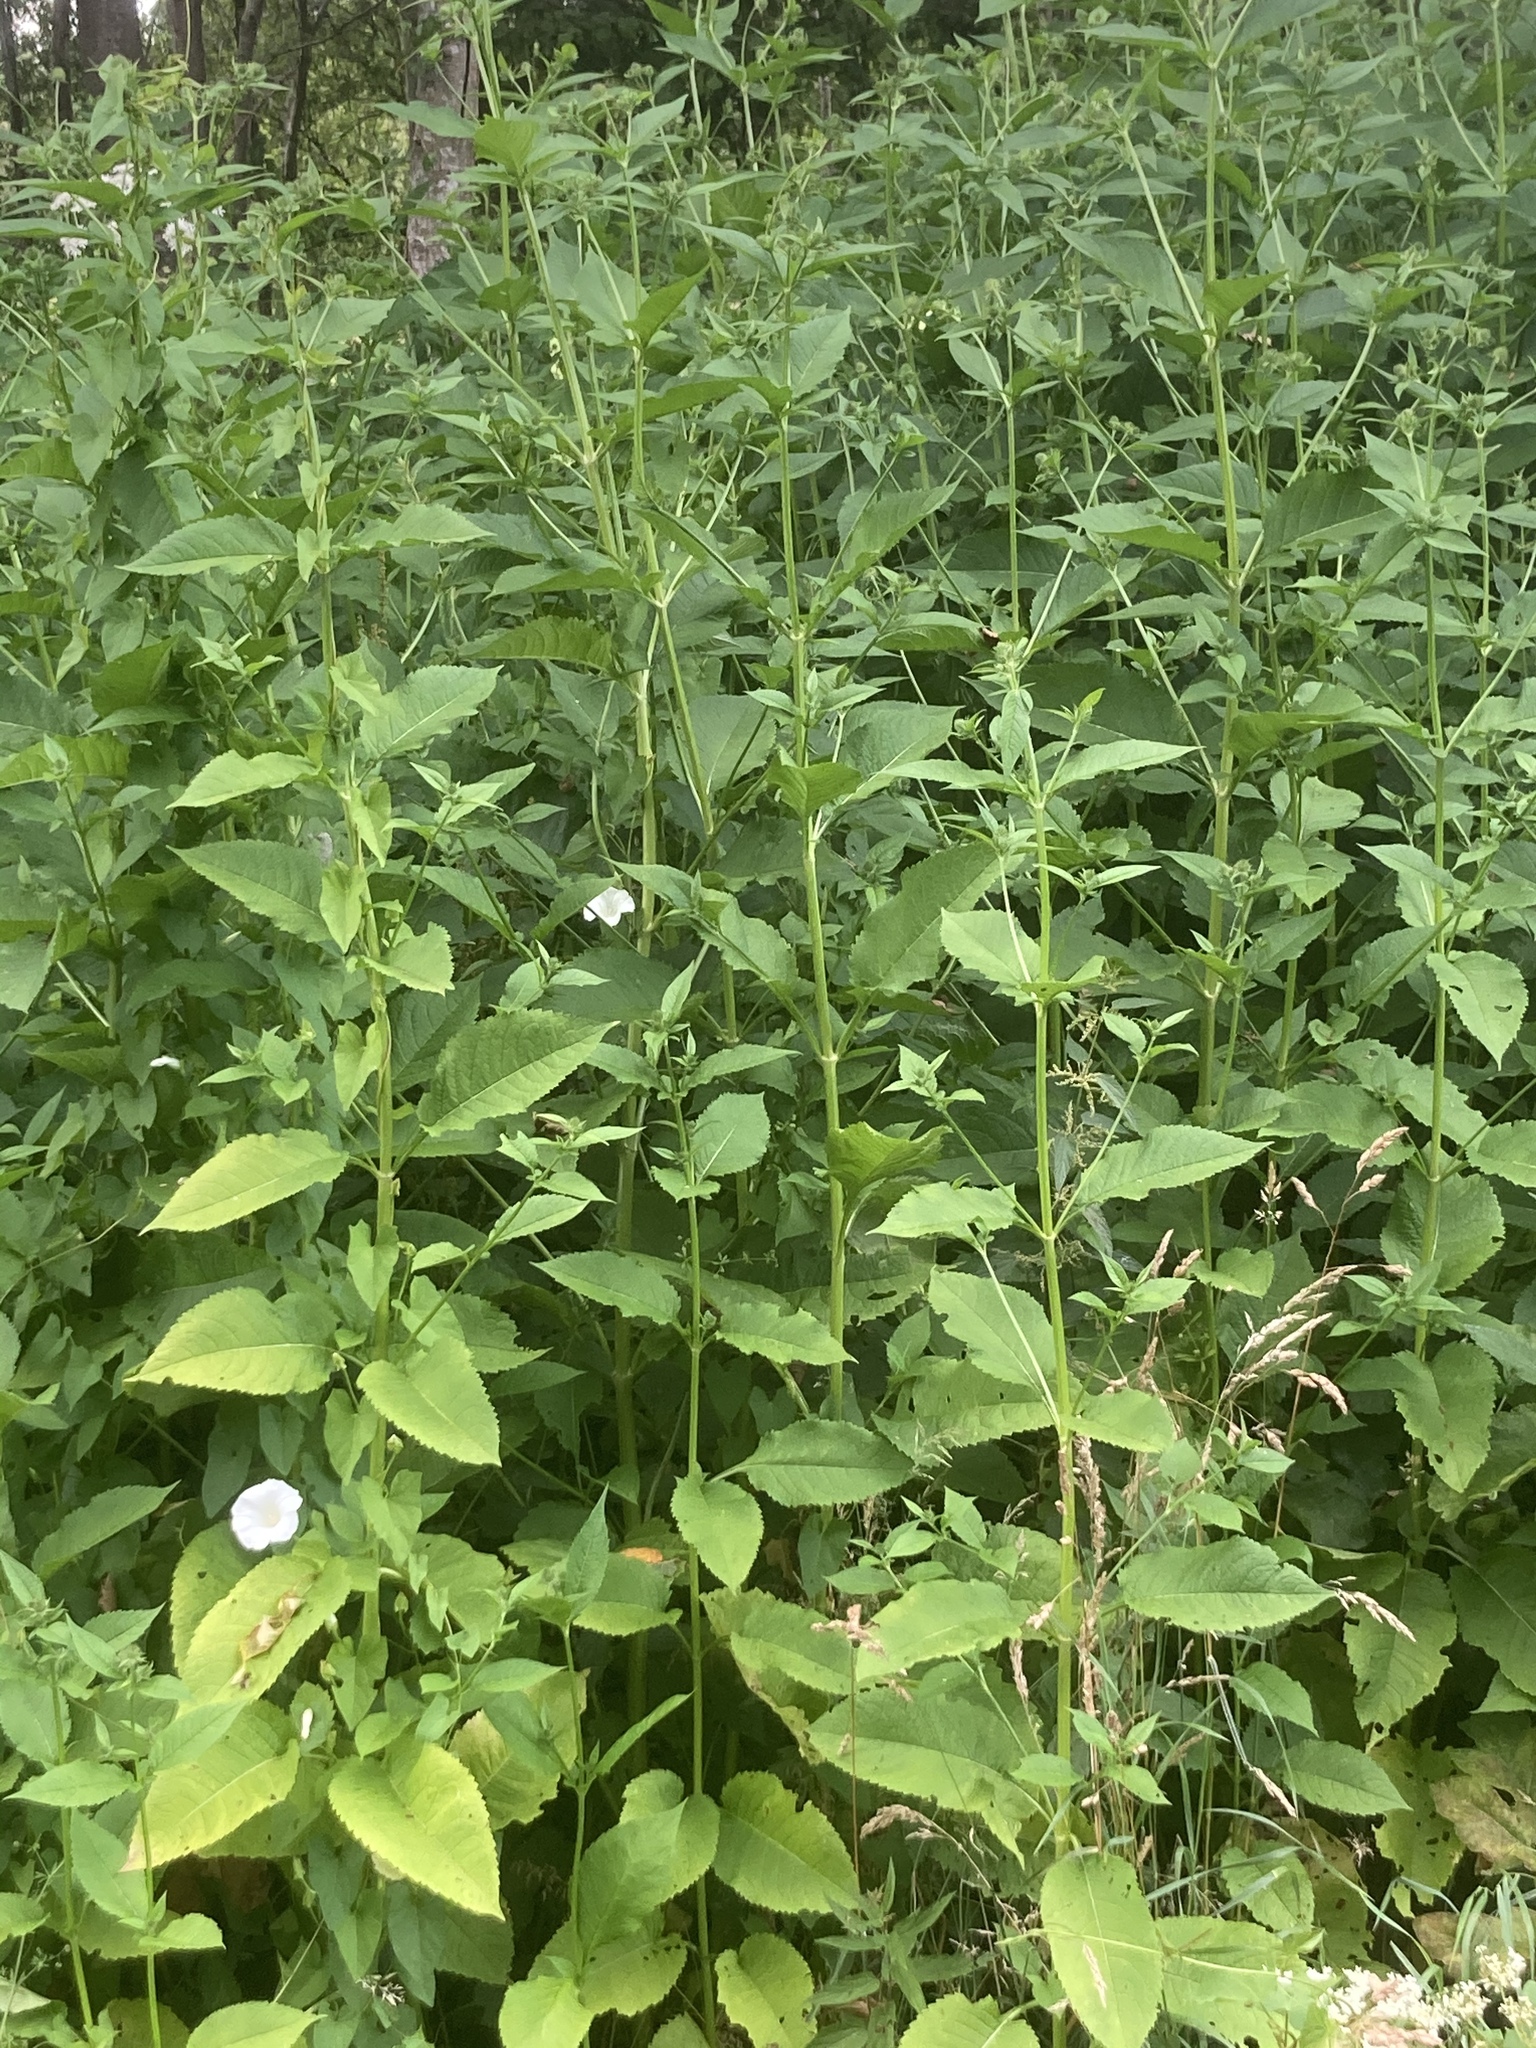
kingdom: Plantae
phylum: Tracheophyta
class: Magnoliopsida
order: Dipsacales
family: Caprifoliaceae
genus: Dipsacus
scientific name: Dipsacus pilosus
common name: Small teasel
